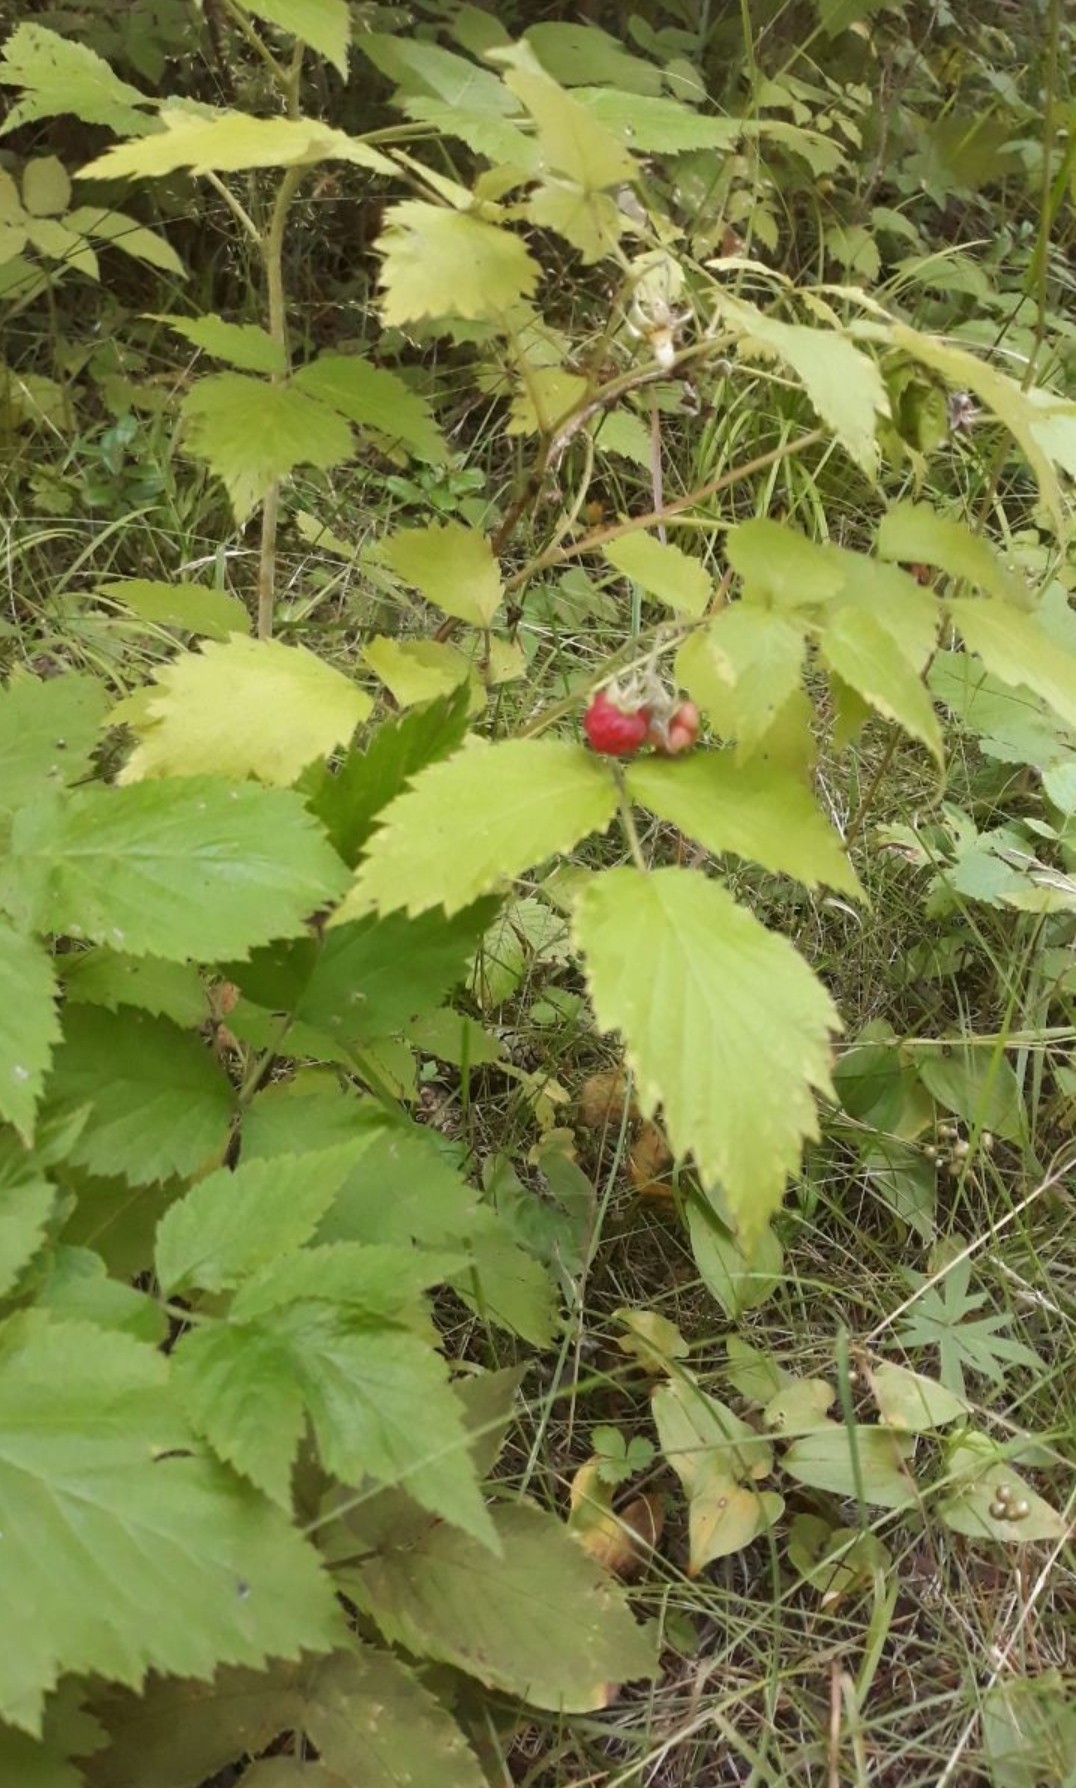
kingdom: Plantae
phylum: Tracheophyta
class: Magnoliopsida
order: Rosales
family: Rosaceae
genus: Rubus
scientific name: Rubus idaeus
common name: Raspberry
